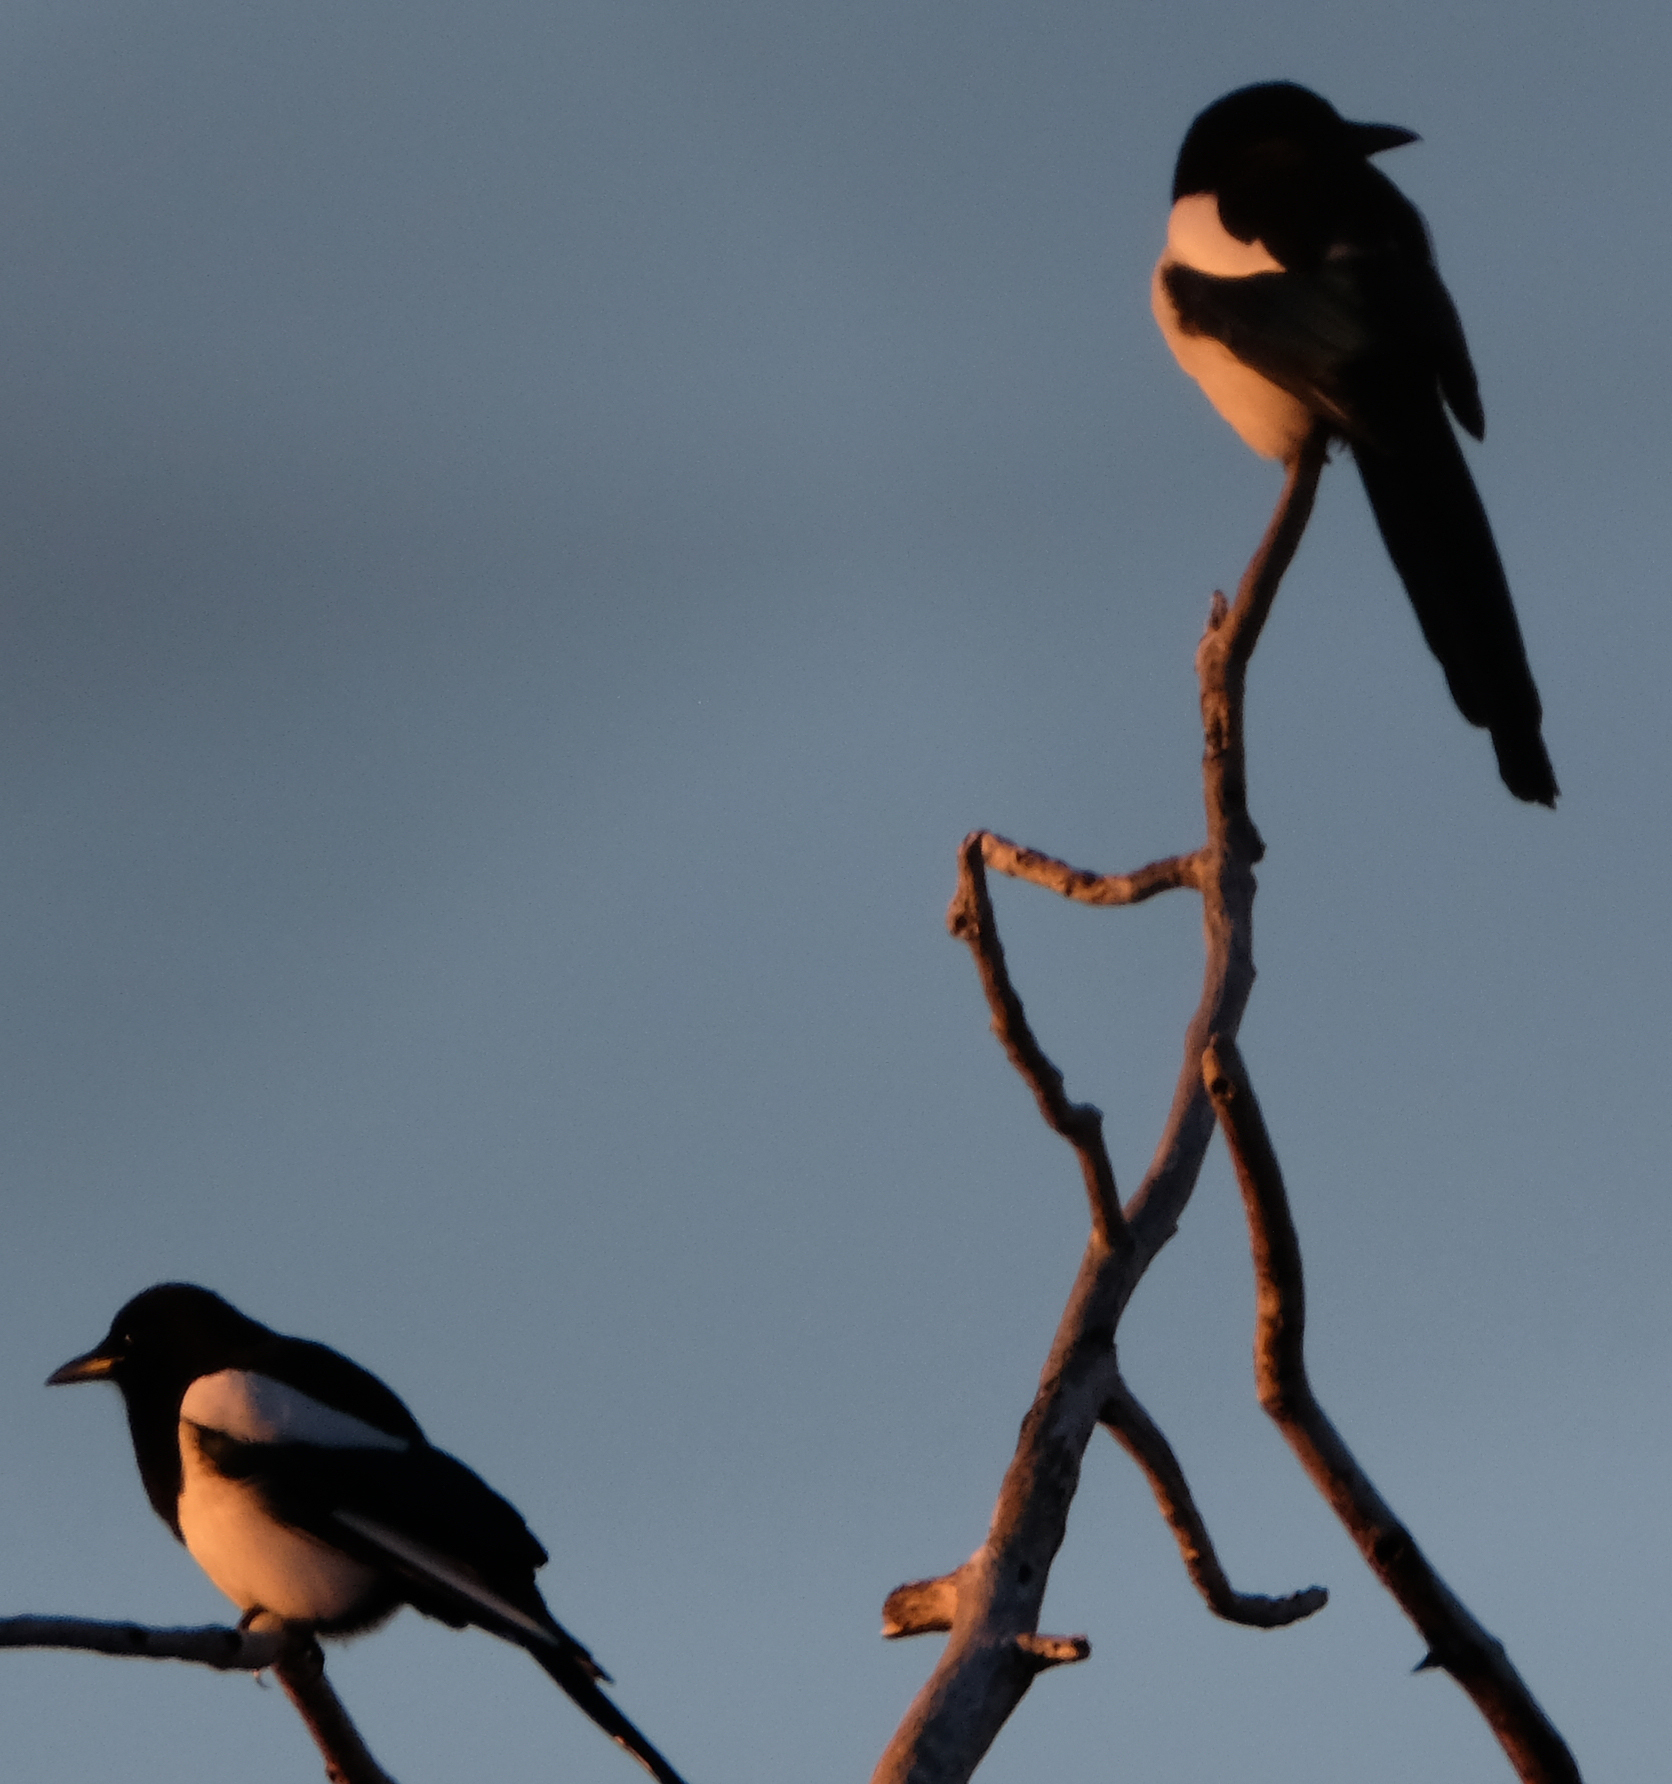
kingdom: Animalia
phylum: Chordata
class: Aves
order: Passeriformes
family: Corvidae
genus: Pica
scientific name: Pica hudsonia
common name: Black-billed magpie
